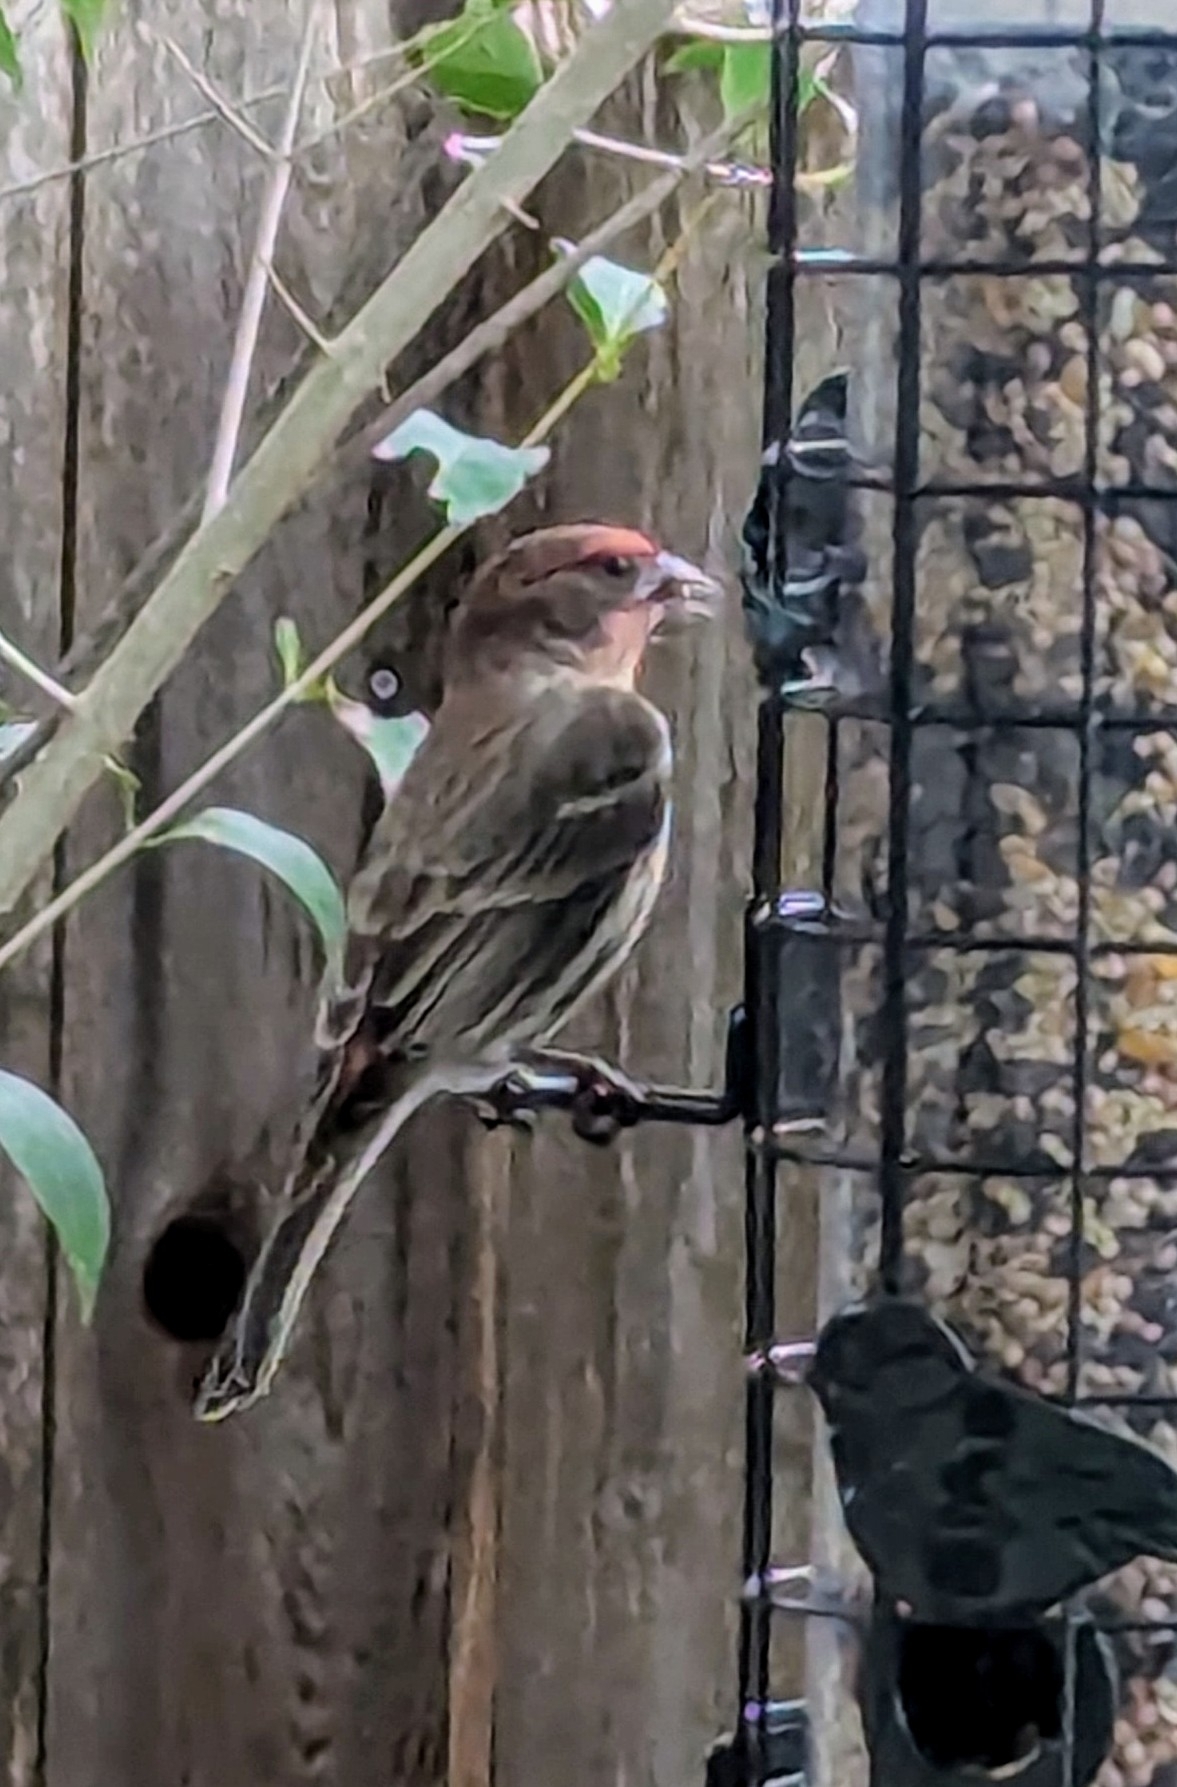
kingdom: Animalia
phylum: Chordata
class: Aves
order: Passeriformes
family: Fringillidae
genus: Haemorhous
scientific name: Haemorhous mexicanus
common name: House finch
